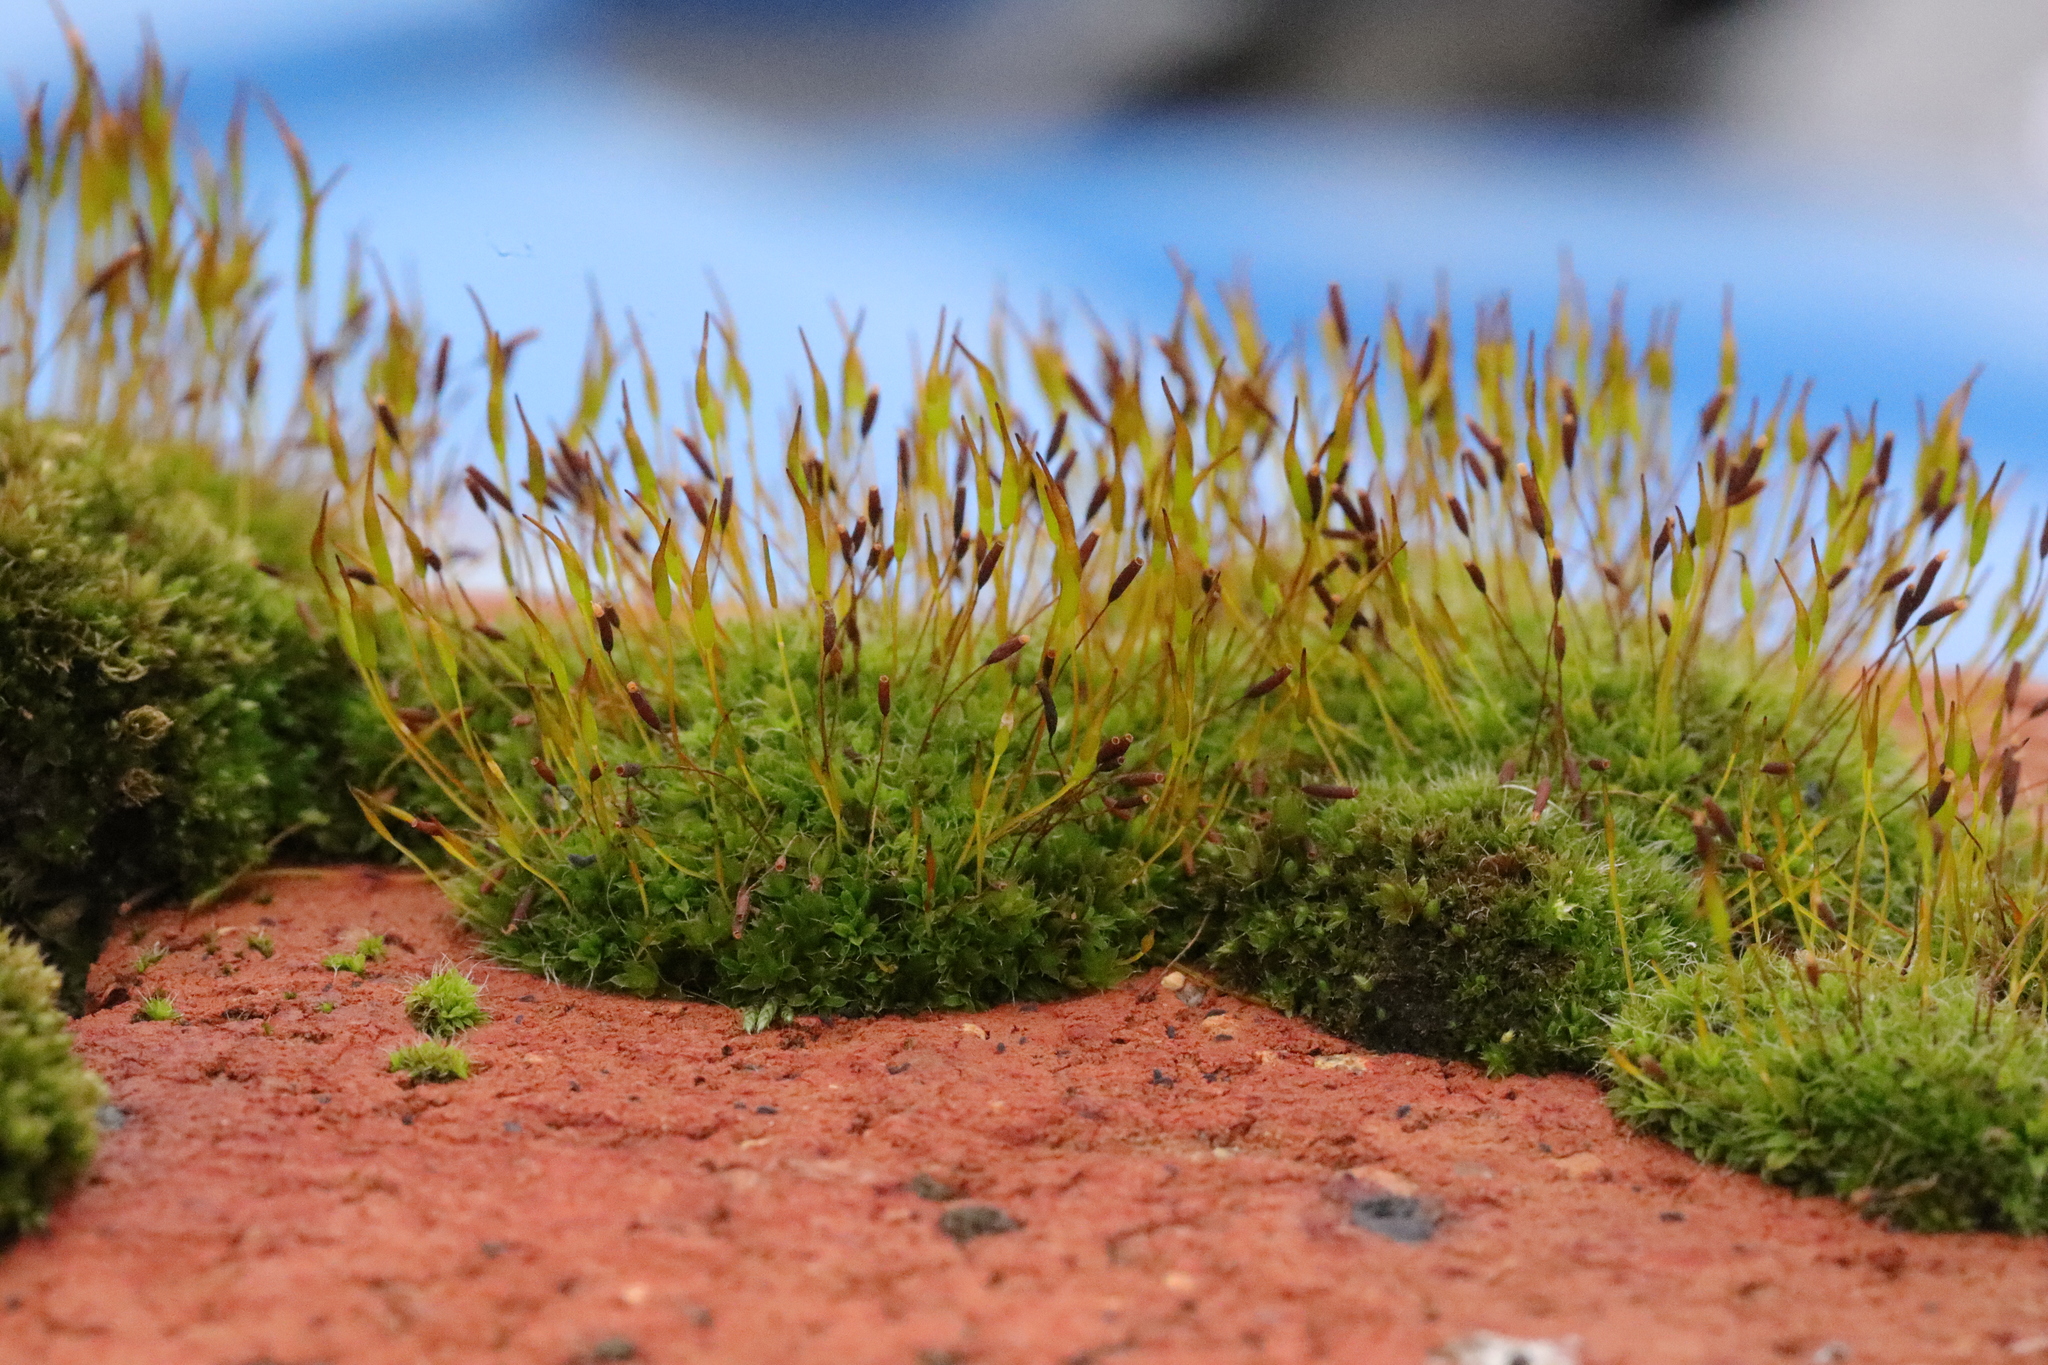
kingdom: Plantae
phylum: Bryophyta
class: Bryopsida
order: Pottiales
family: Pottiaceae
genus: Tortula
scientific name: Tortula muralis
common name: Wall screw-moss
